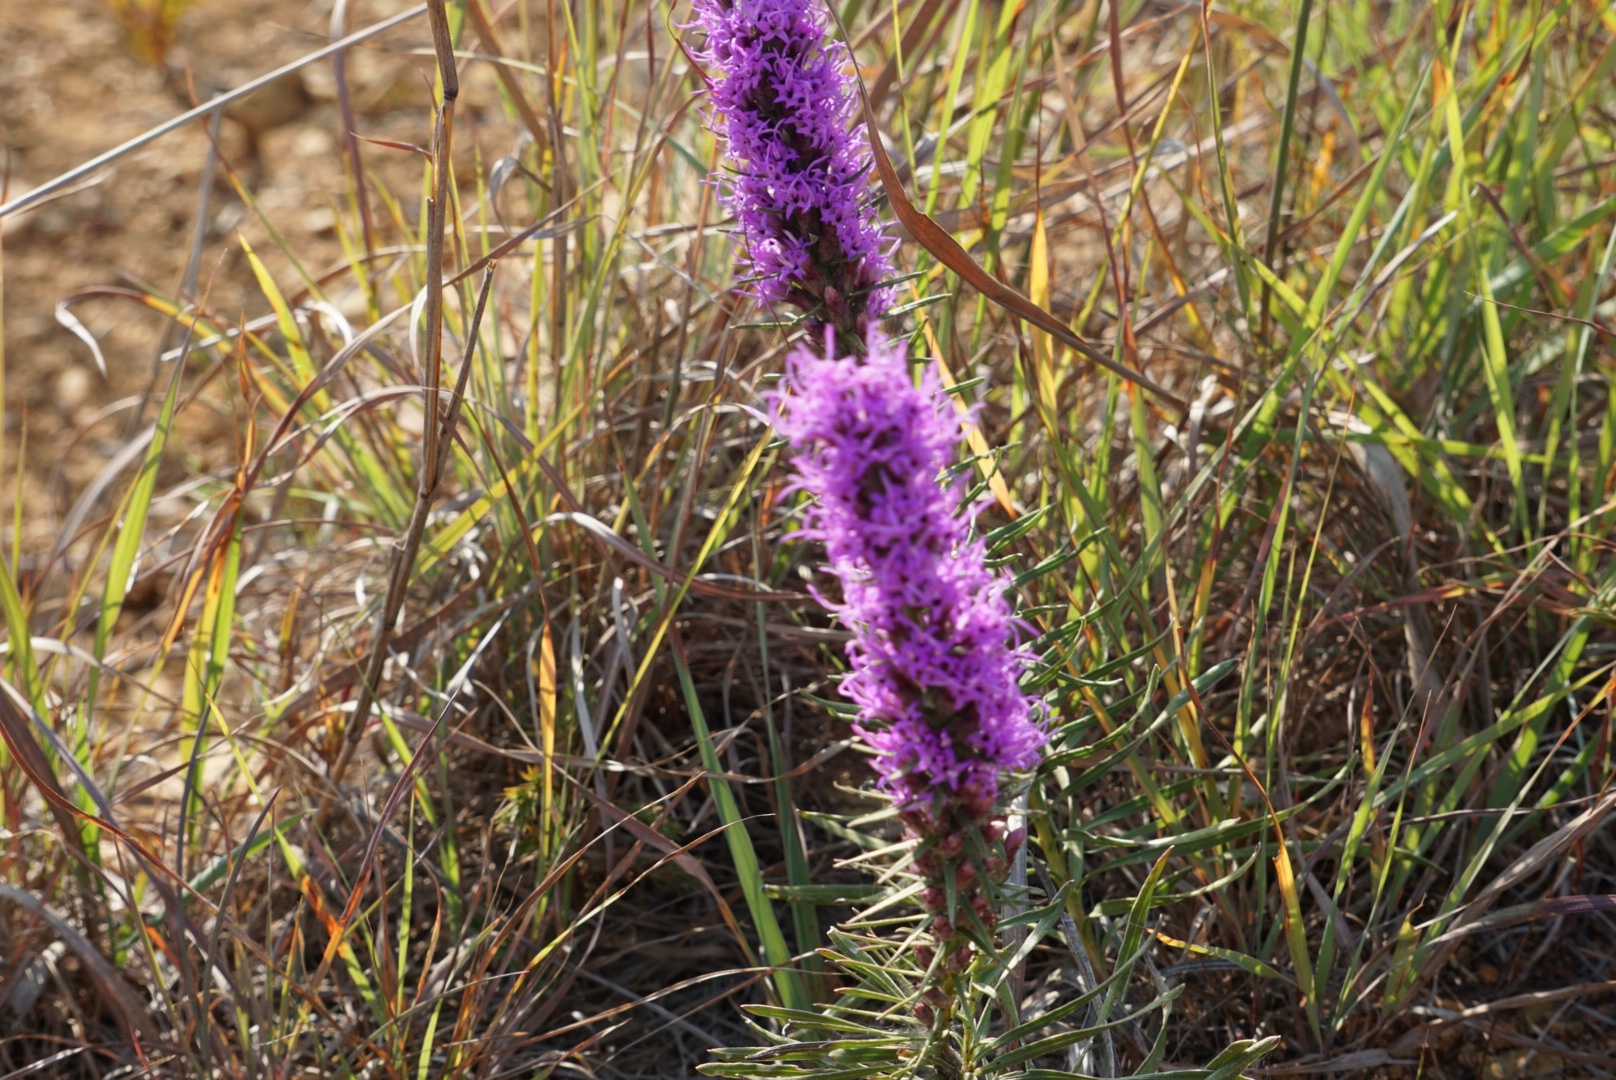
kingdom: Plantae
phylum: Tracheophyta
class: Magnoliopsida
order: Asterales
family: Asteraceae
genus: Liatris
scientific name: Liatris punctata
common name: Dotted gayfeather
